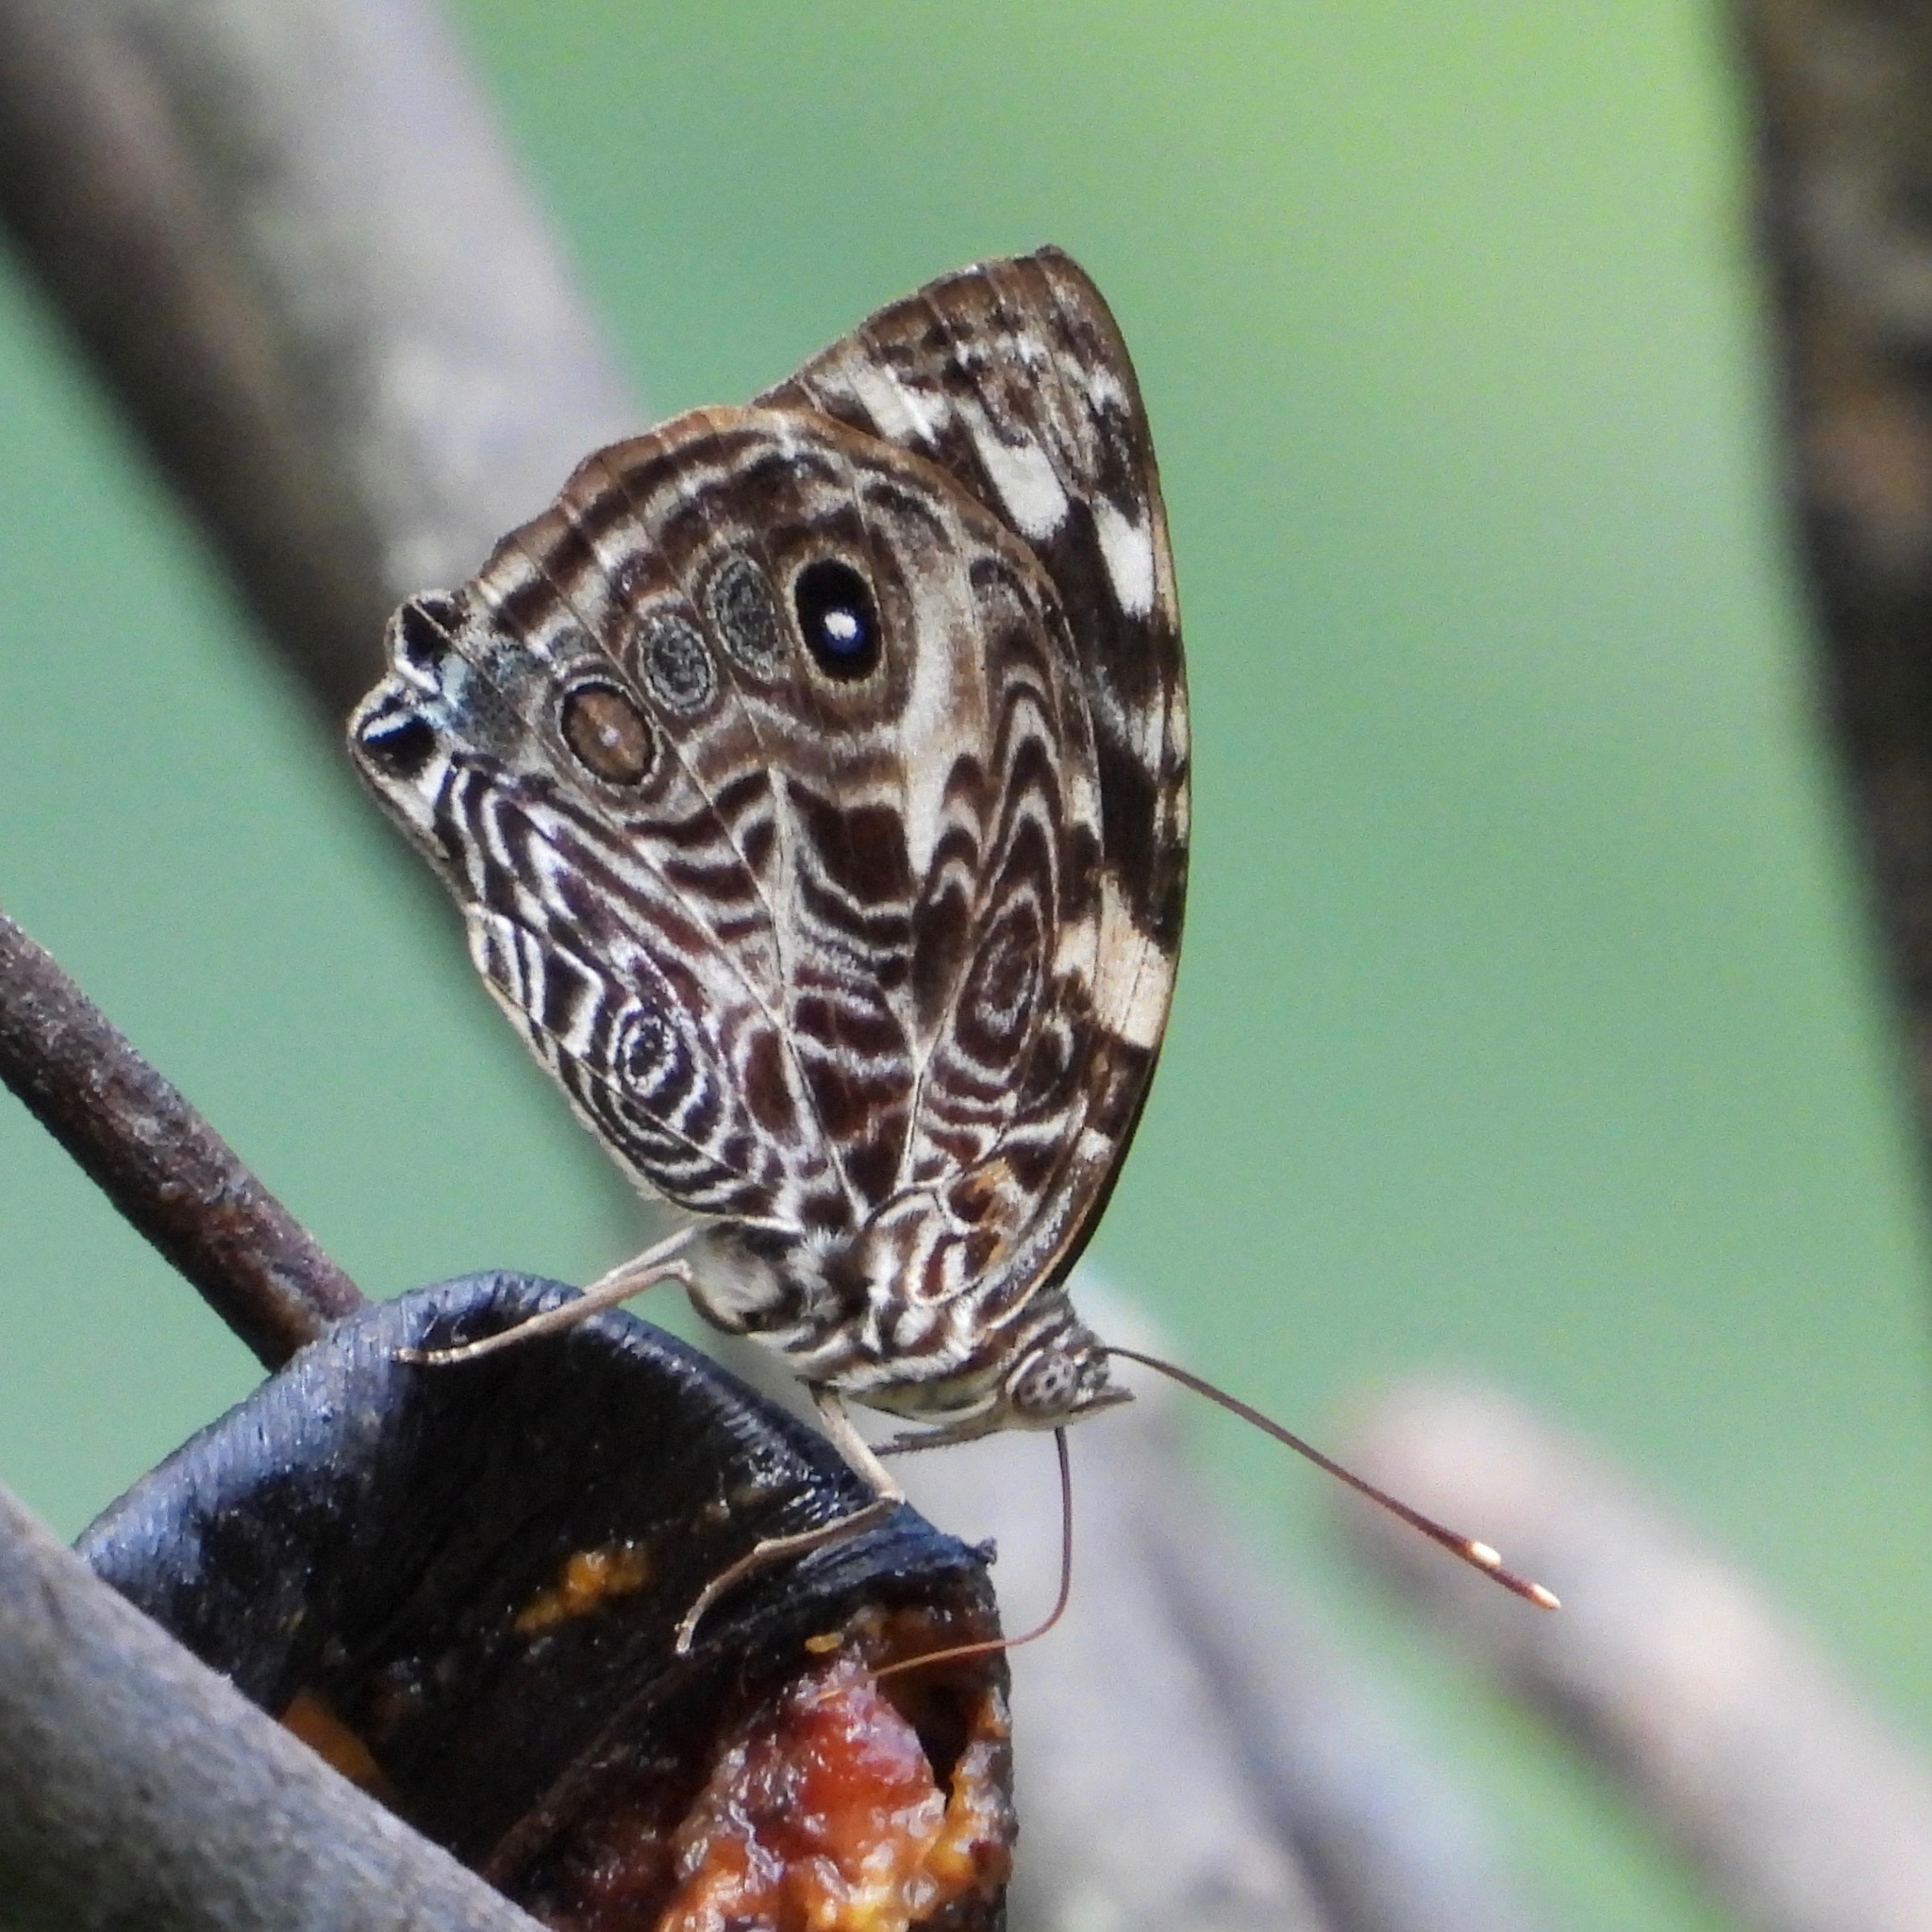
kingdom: Animalia
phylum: Arthropoda
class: Insecta
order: Lepidoptera
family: Nymphalidae
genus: Smyrna
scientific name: Smyrna blomfildia
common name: Blomfild's beauty
